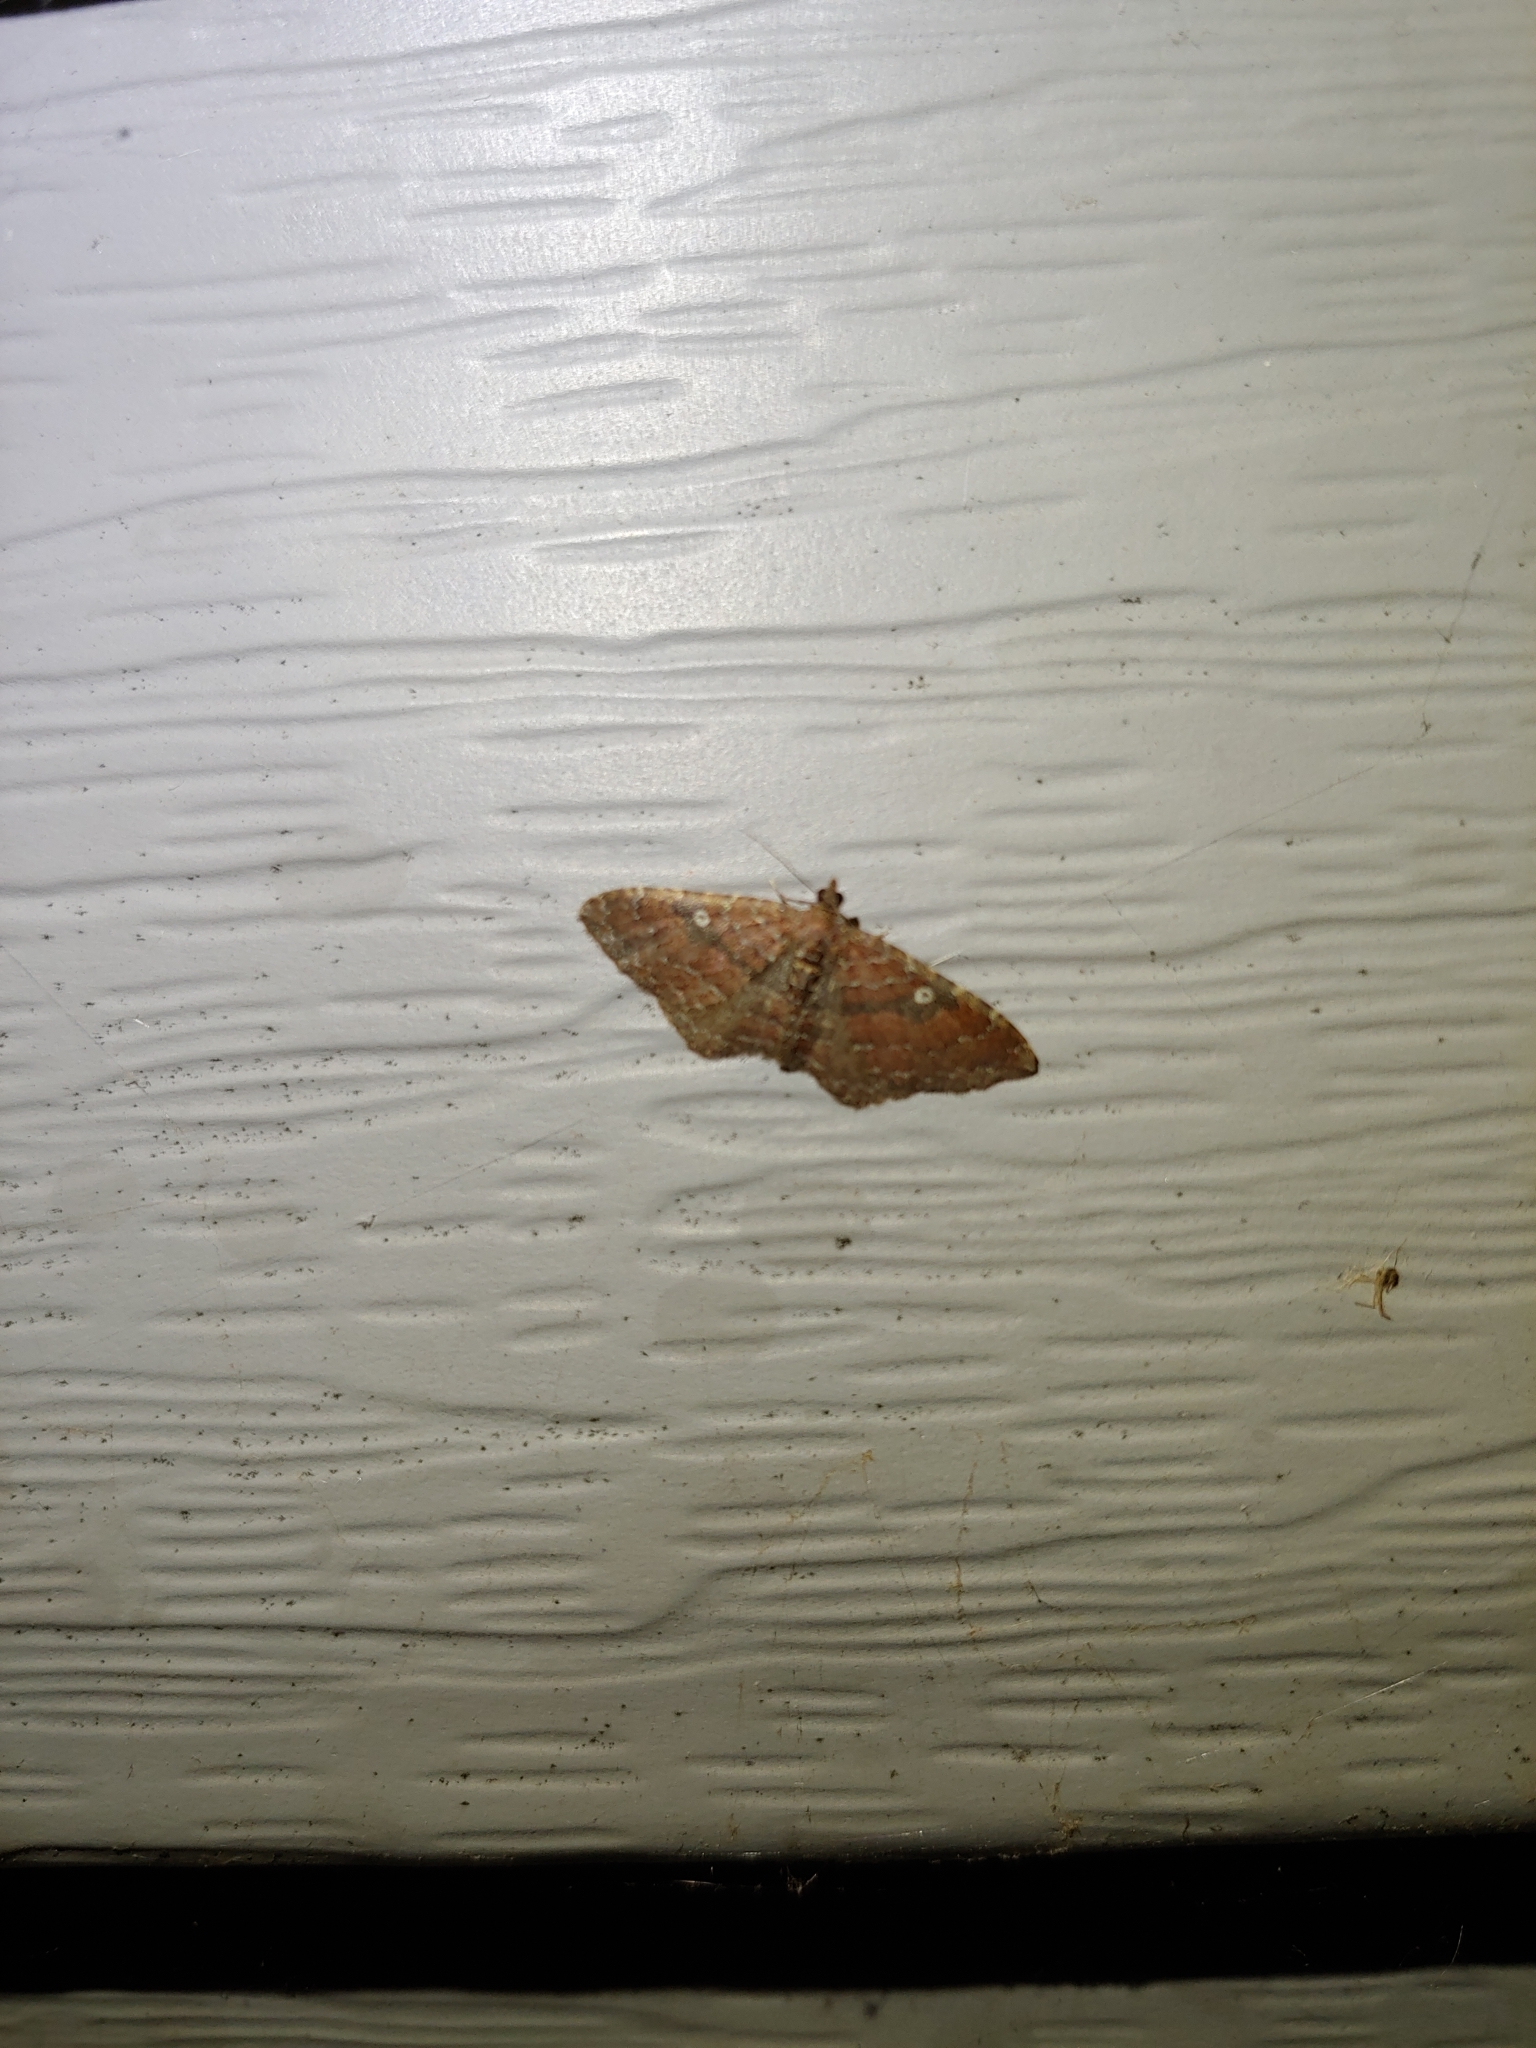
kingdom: Animalia
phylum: Arthropoda
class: Insecta
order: Lepidoptera
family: Geometridae
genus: Orthonama
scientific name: Orthonama obstipata
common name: The gem
